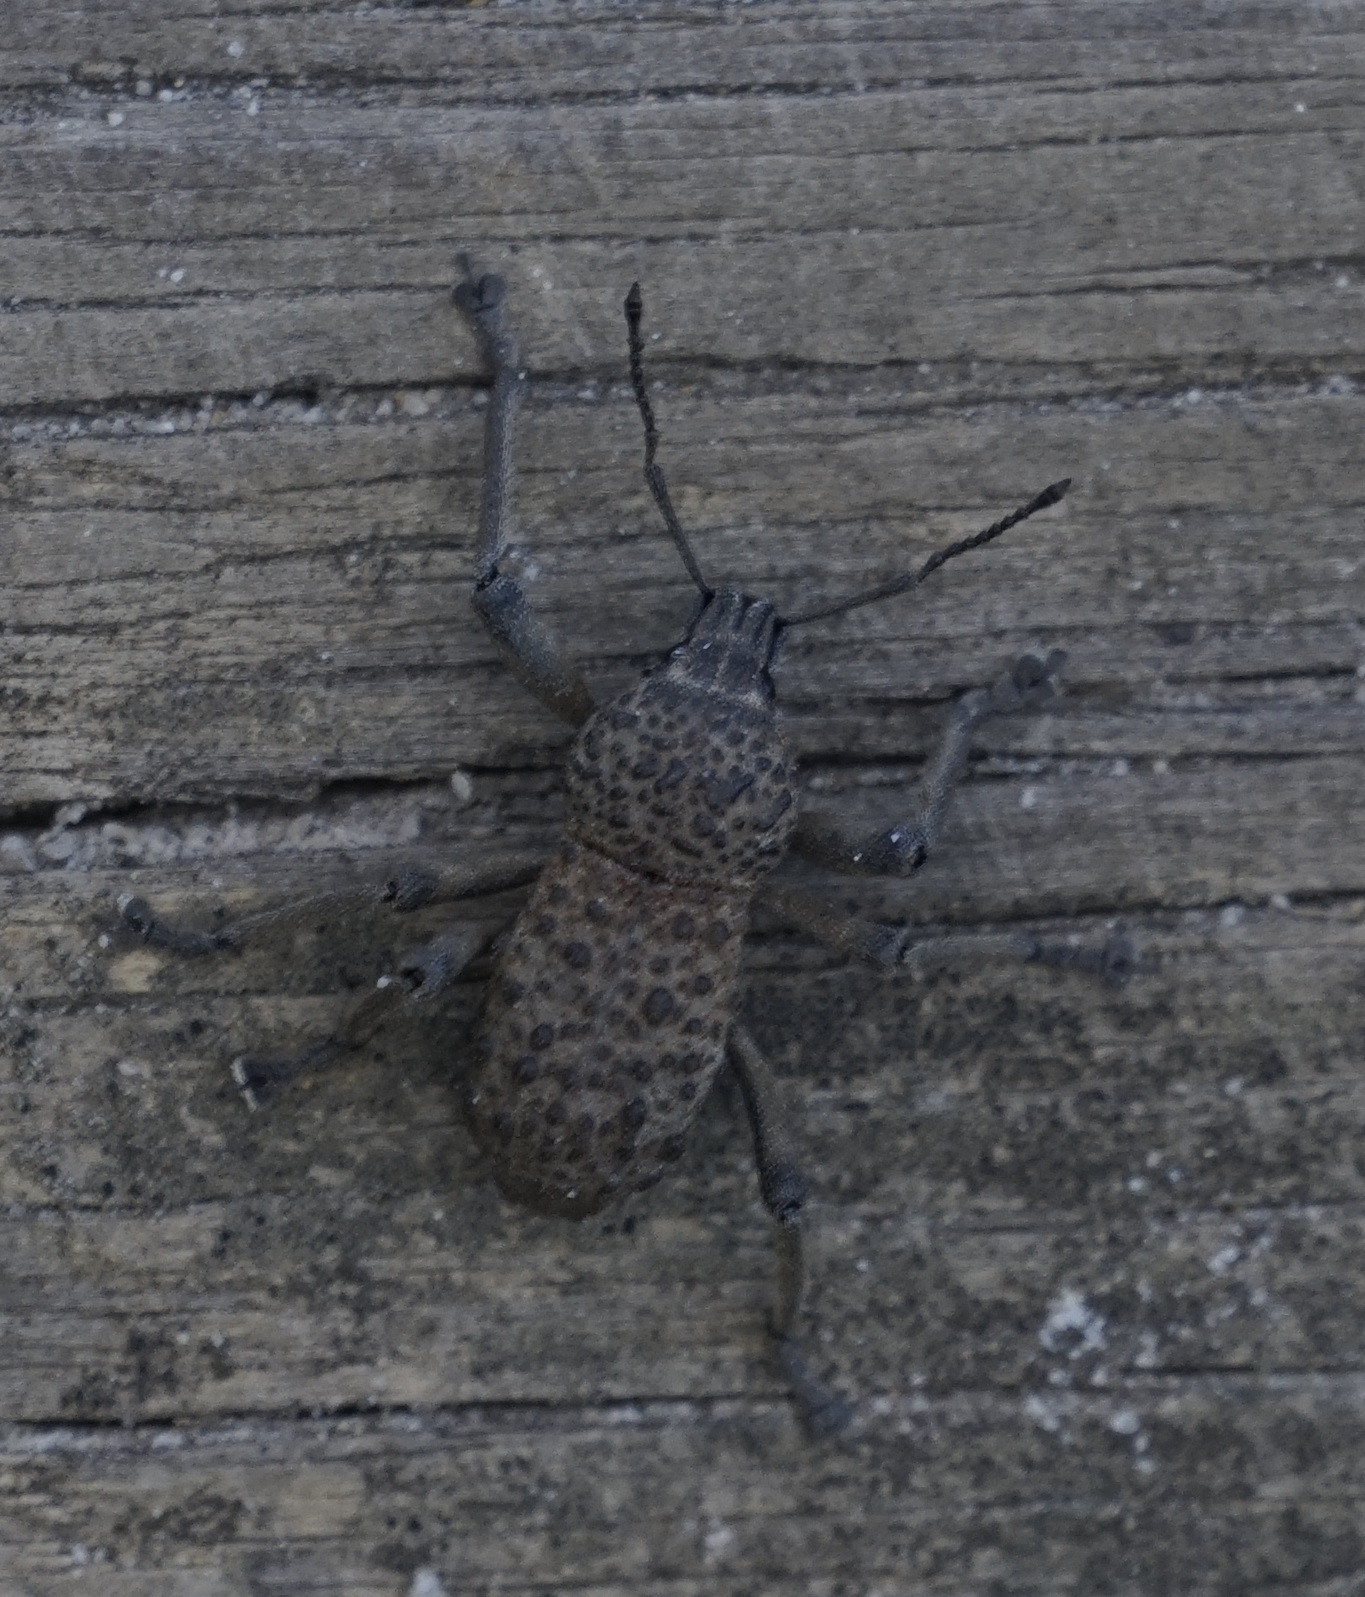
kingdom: Animalia
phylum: Arthropoda
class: Insecta
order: Coleoptera
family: Curculionidae
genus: Psapharus
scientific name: Psapharus infaustus
